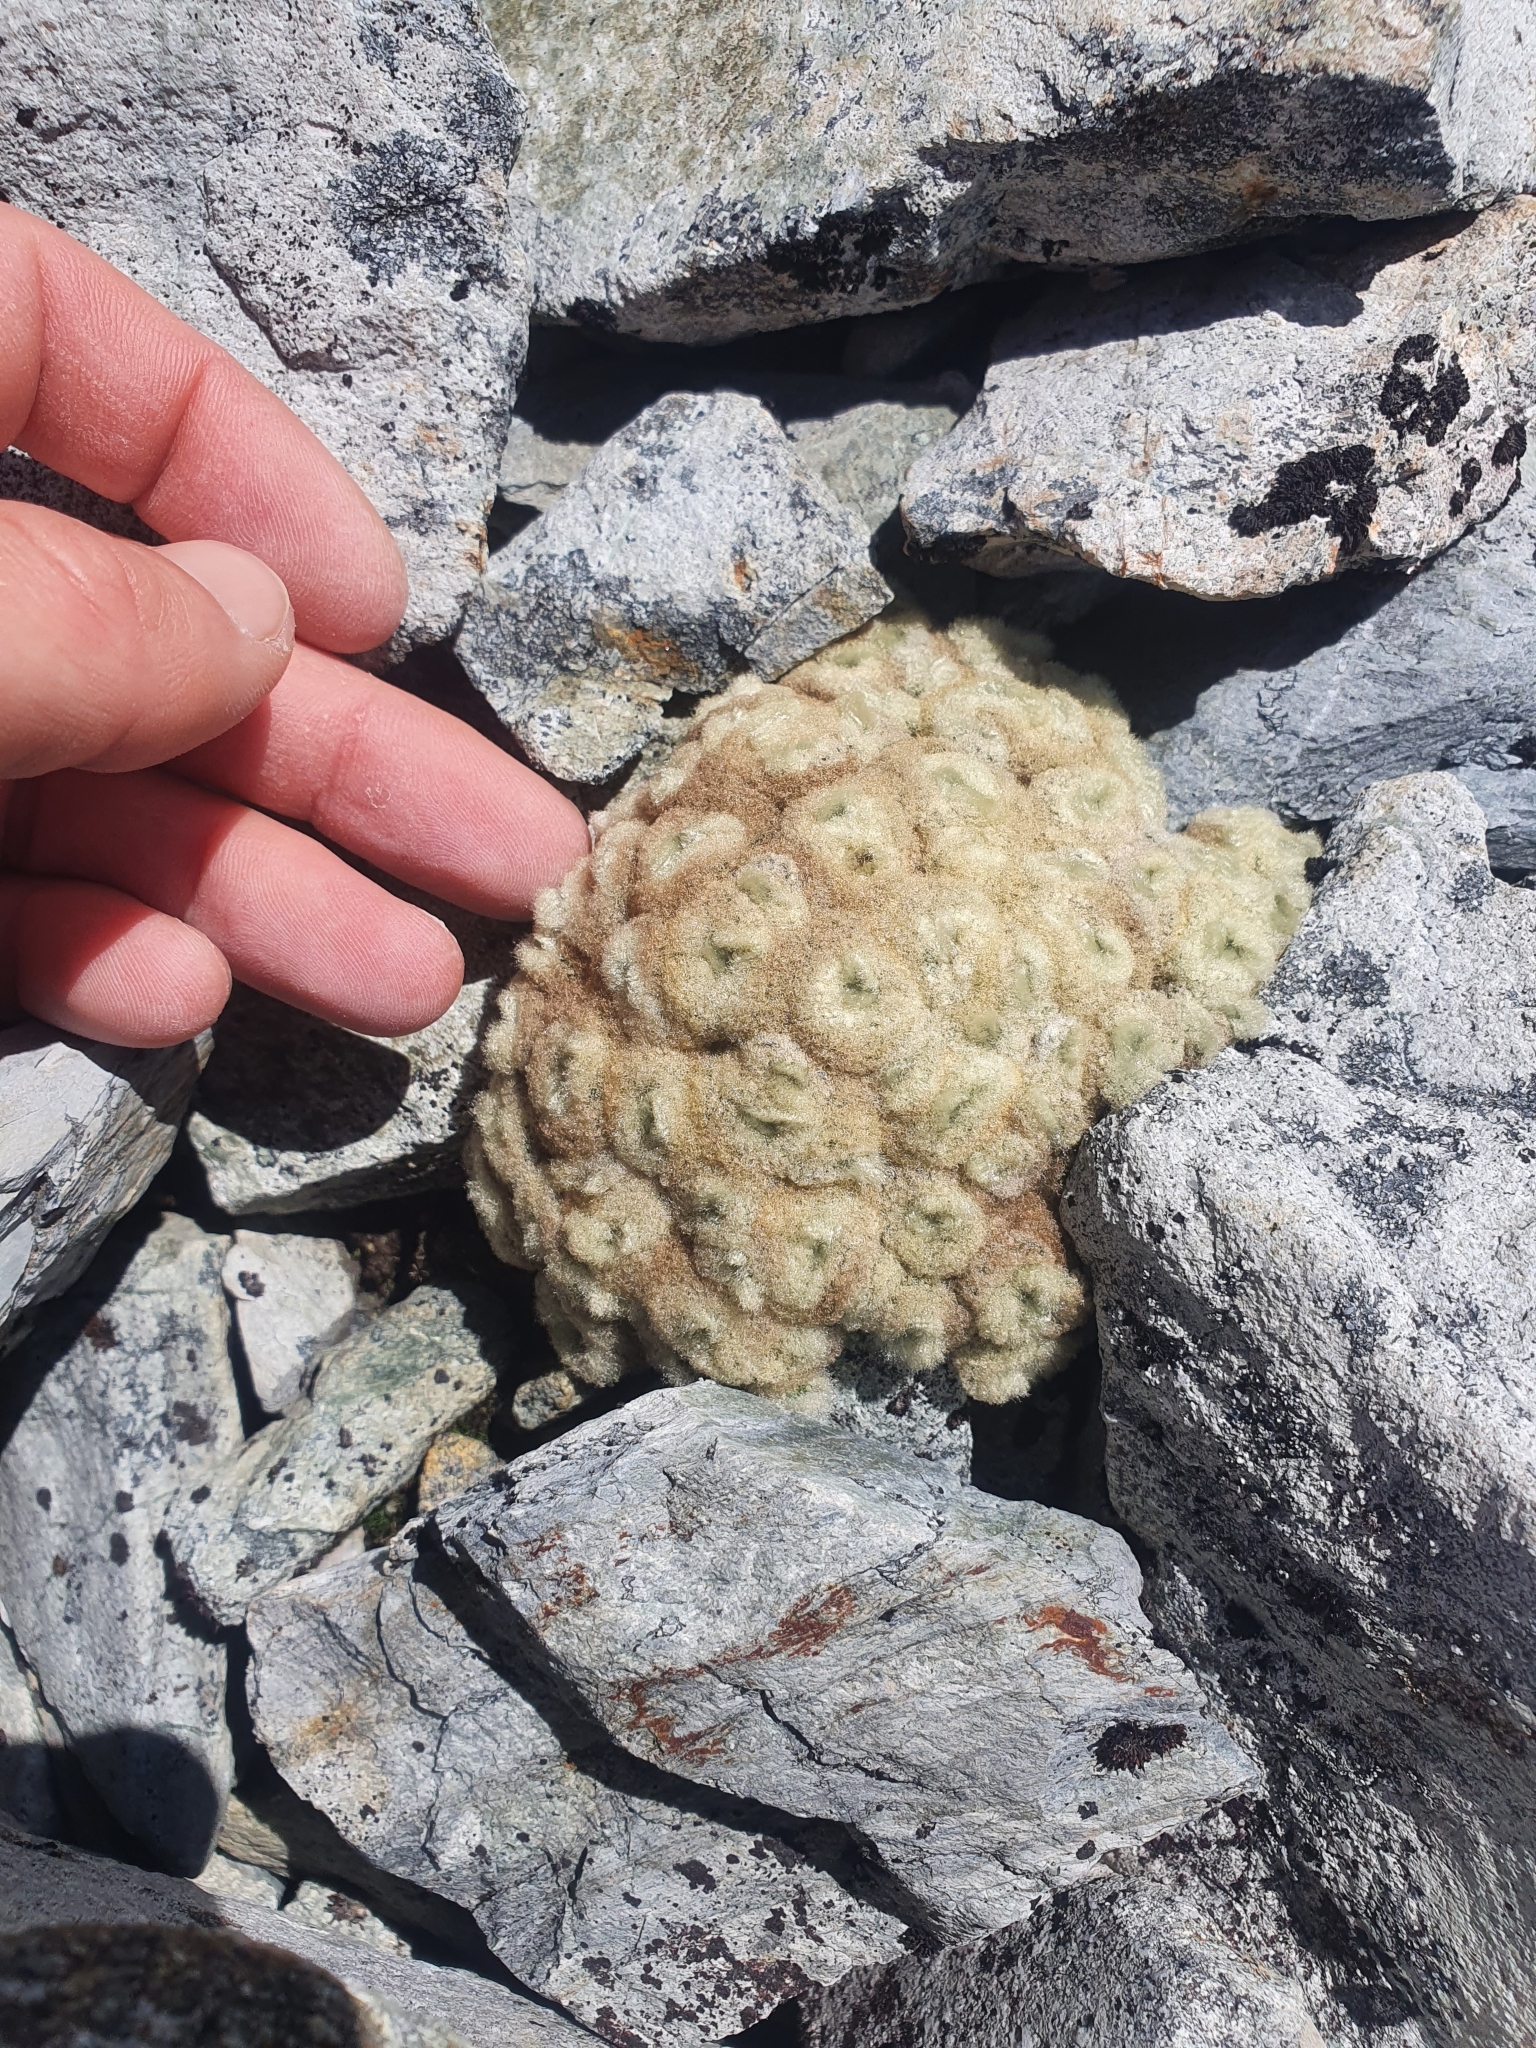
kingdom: Plantae
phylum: Tracheophyta
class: Magnoliopsida
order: Asterales
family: Asteraceae
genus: Haastia
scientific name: Haastia pulvinaris
